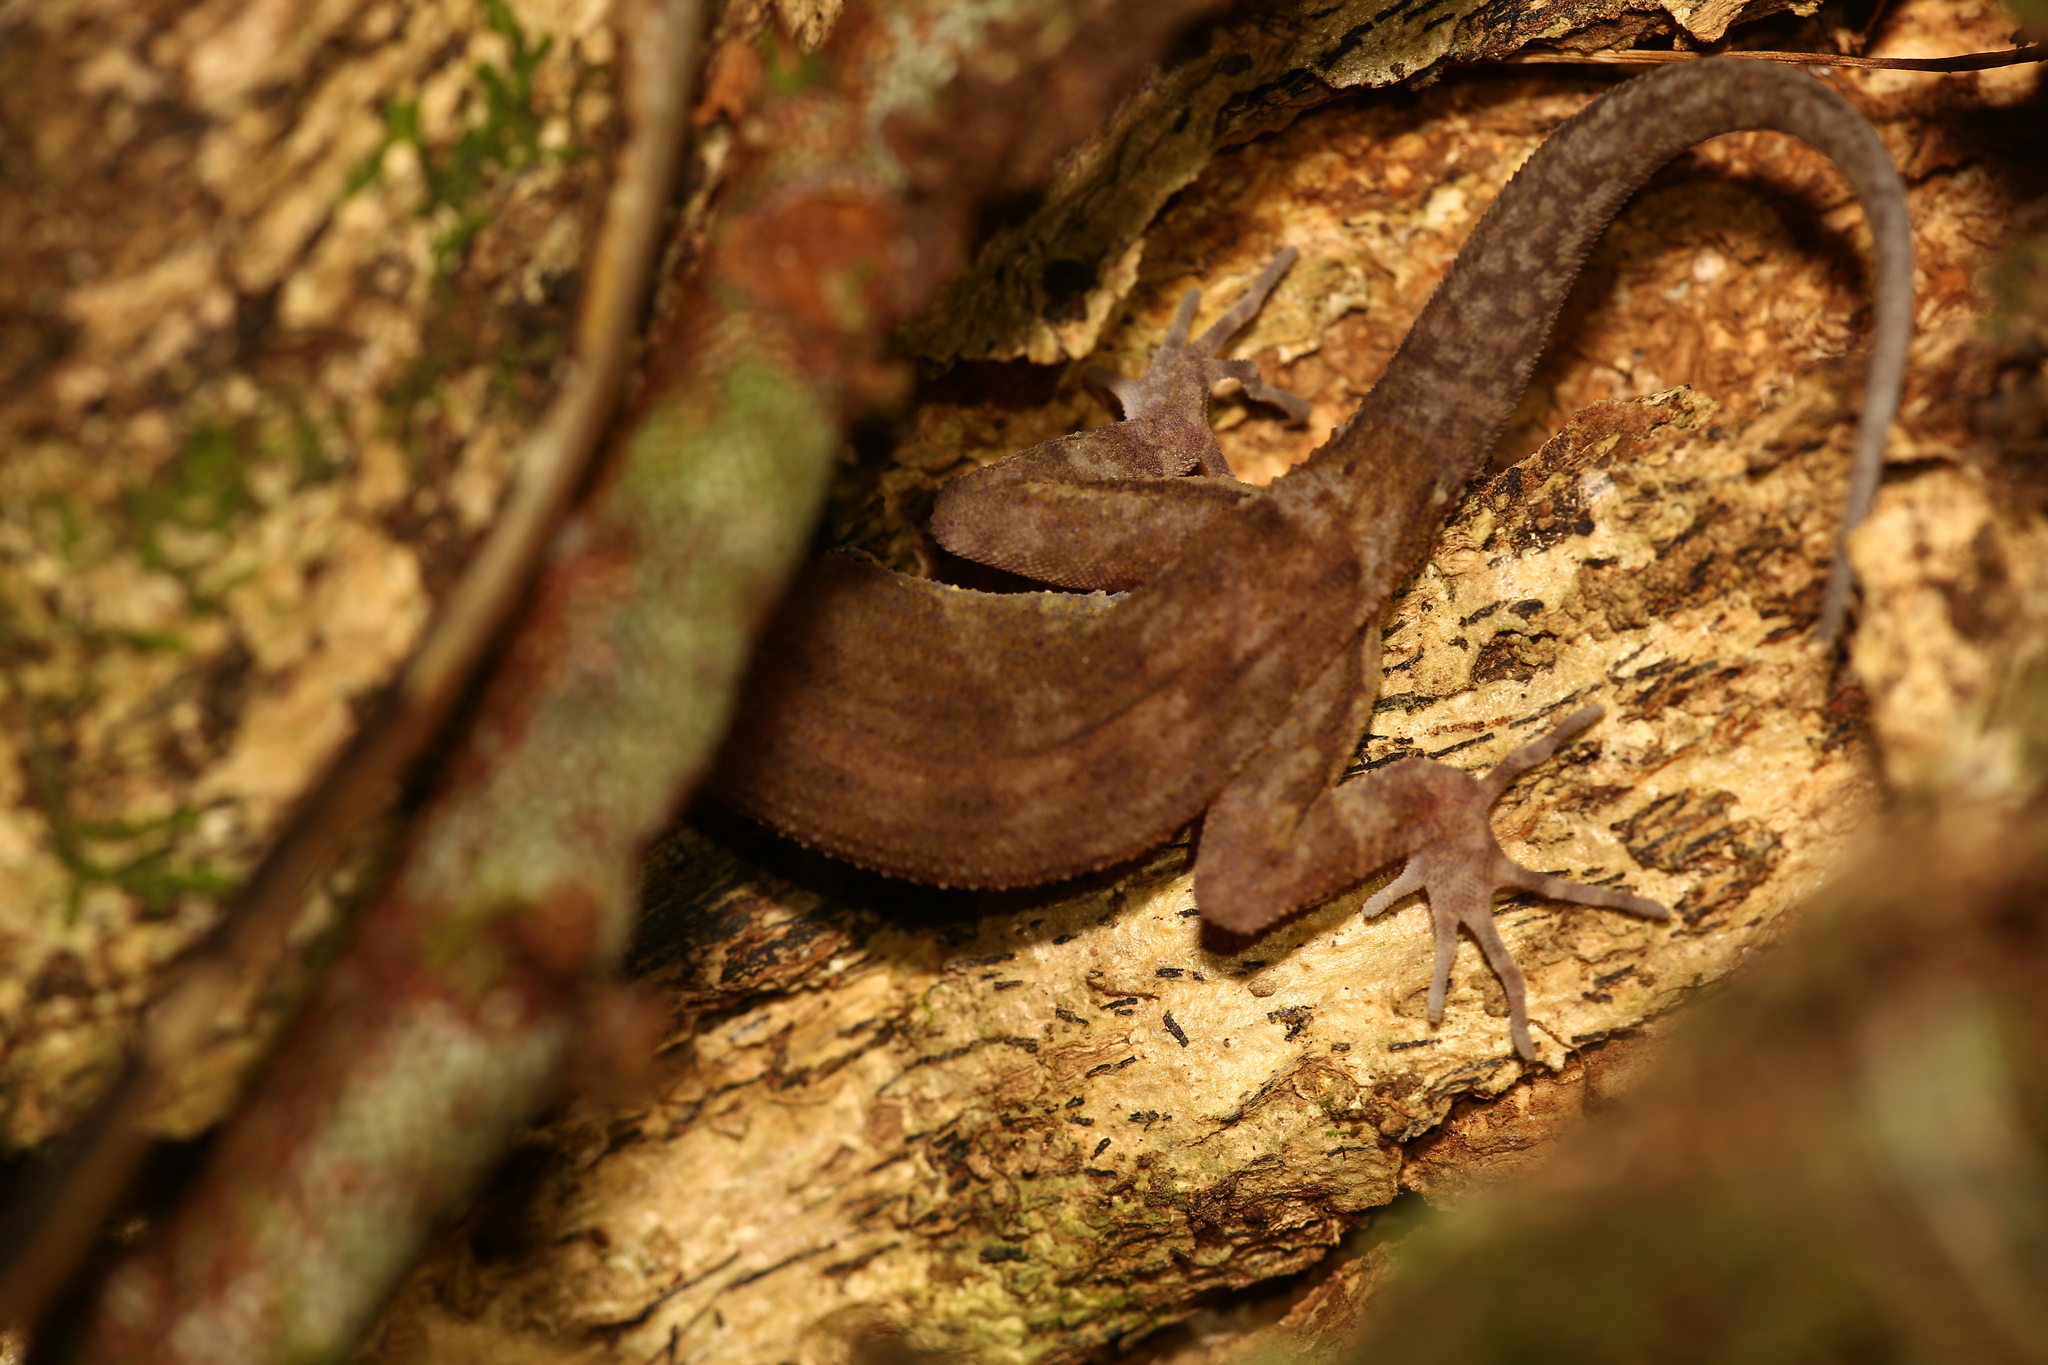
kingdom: Animalia
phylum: Chordata
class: Squamata
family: Gekkonidae
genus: Nactus
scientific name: Nactus pelagicus
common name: Pelagic gecko
